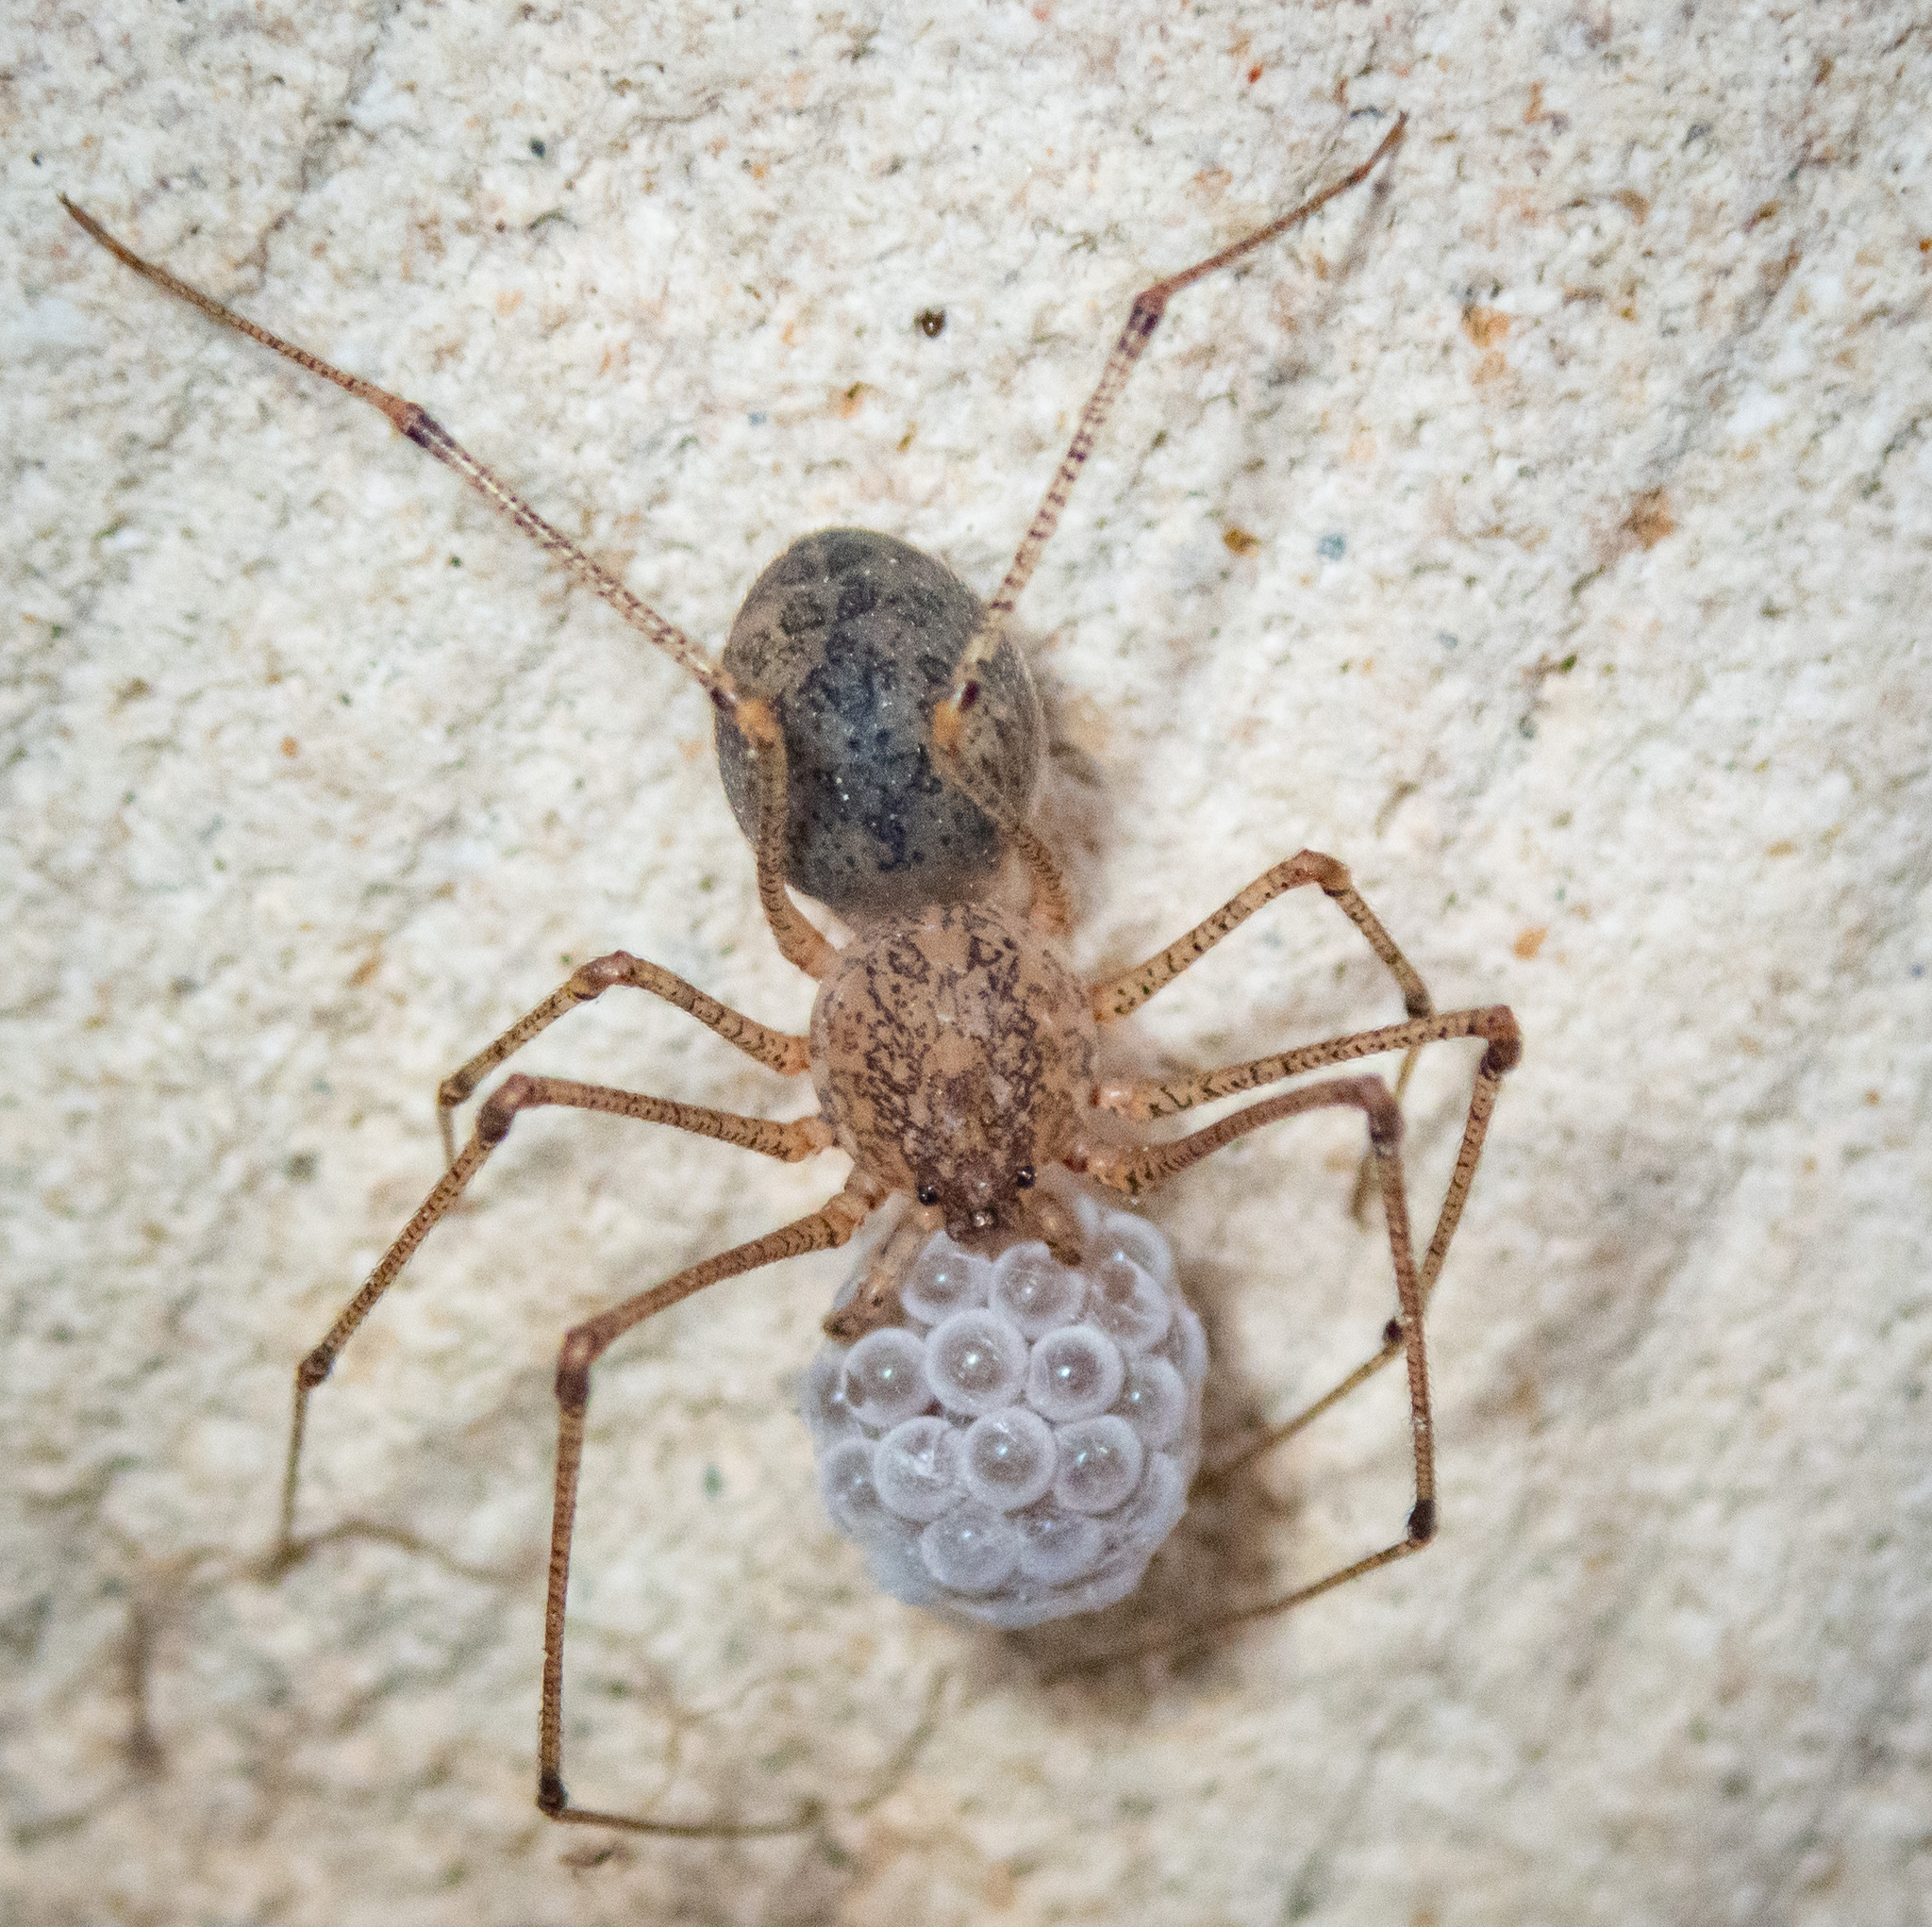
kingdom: Animalia
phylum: Arthropoda
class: Arachnida
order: Araneae
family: Scytodidae
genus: Scytodes
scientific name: Scytodes atlacoya
